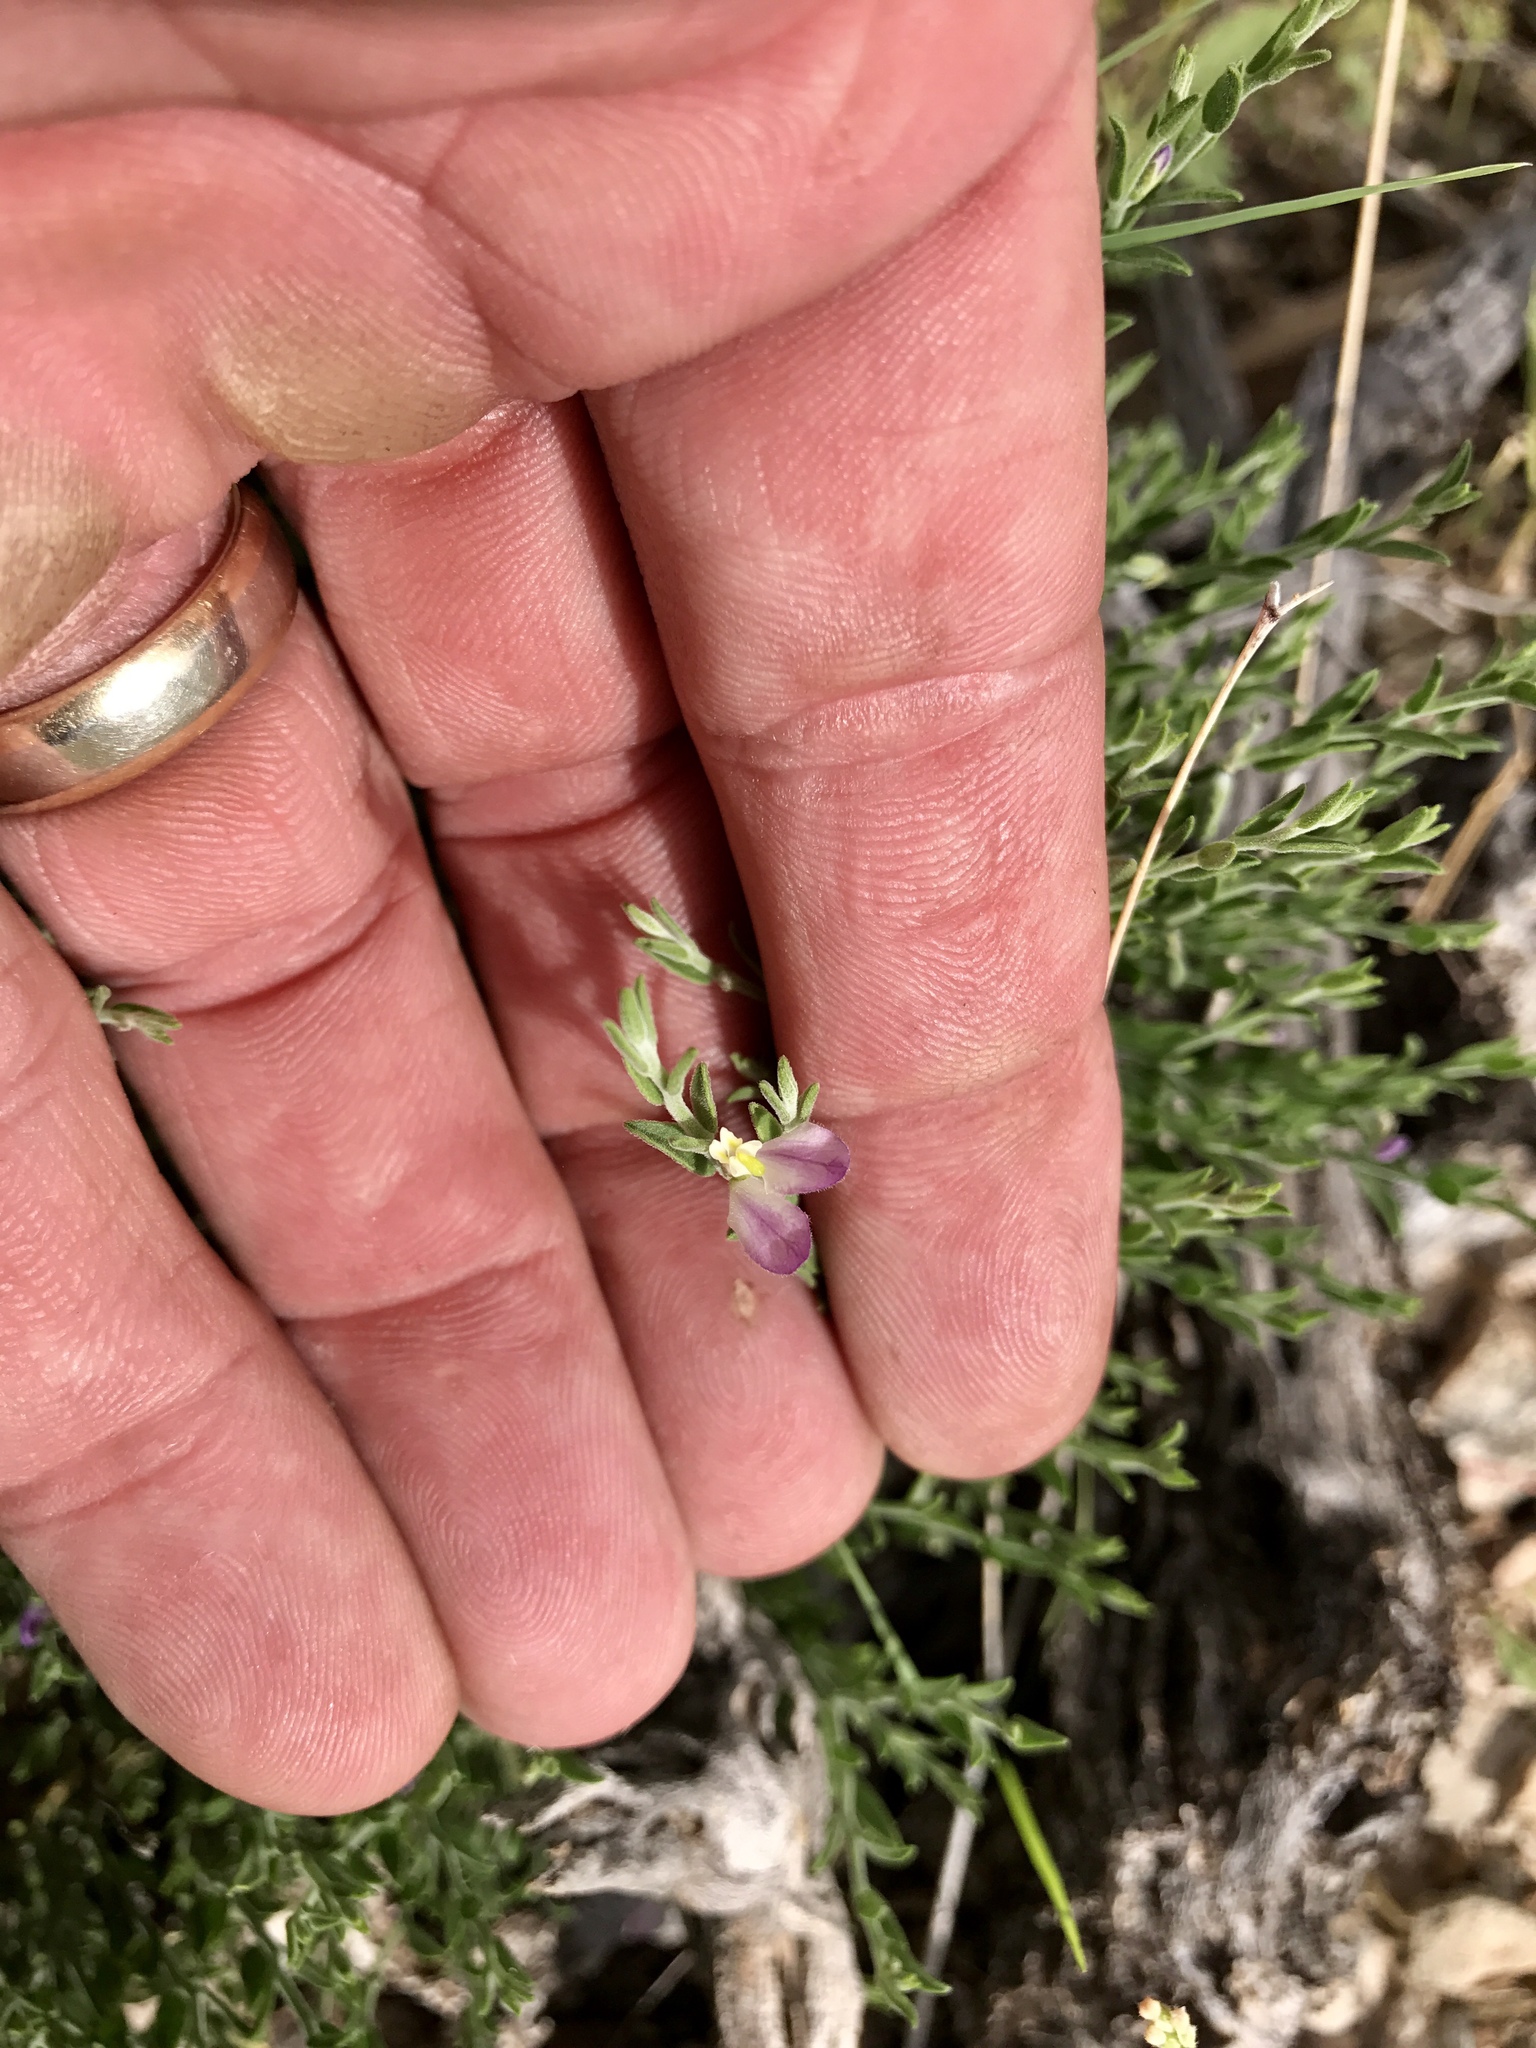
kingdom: Plantae
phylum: Tracheophyta
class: Magnoliopsida
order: Fabales
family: Polygalaceae
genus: Hebecarpa
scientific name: Hebecarpa macradenia
